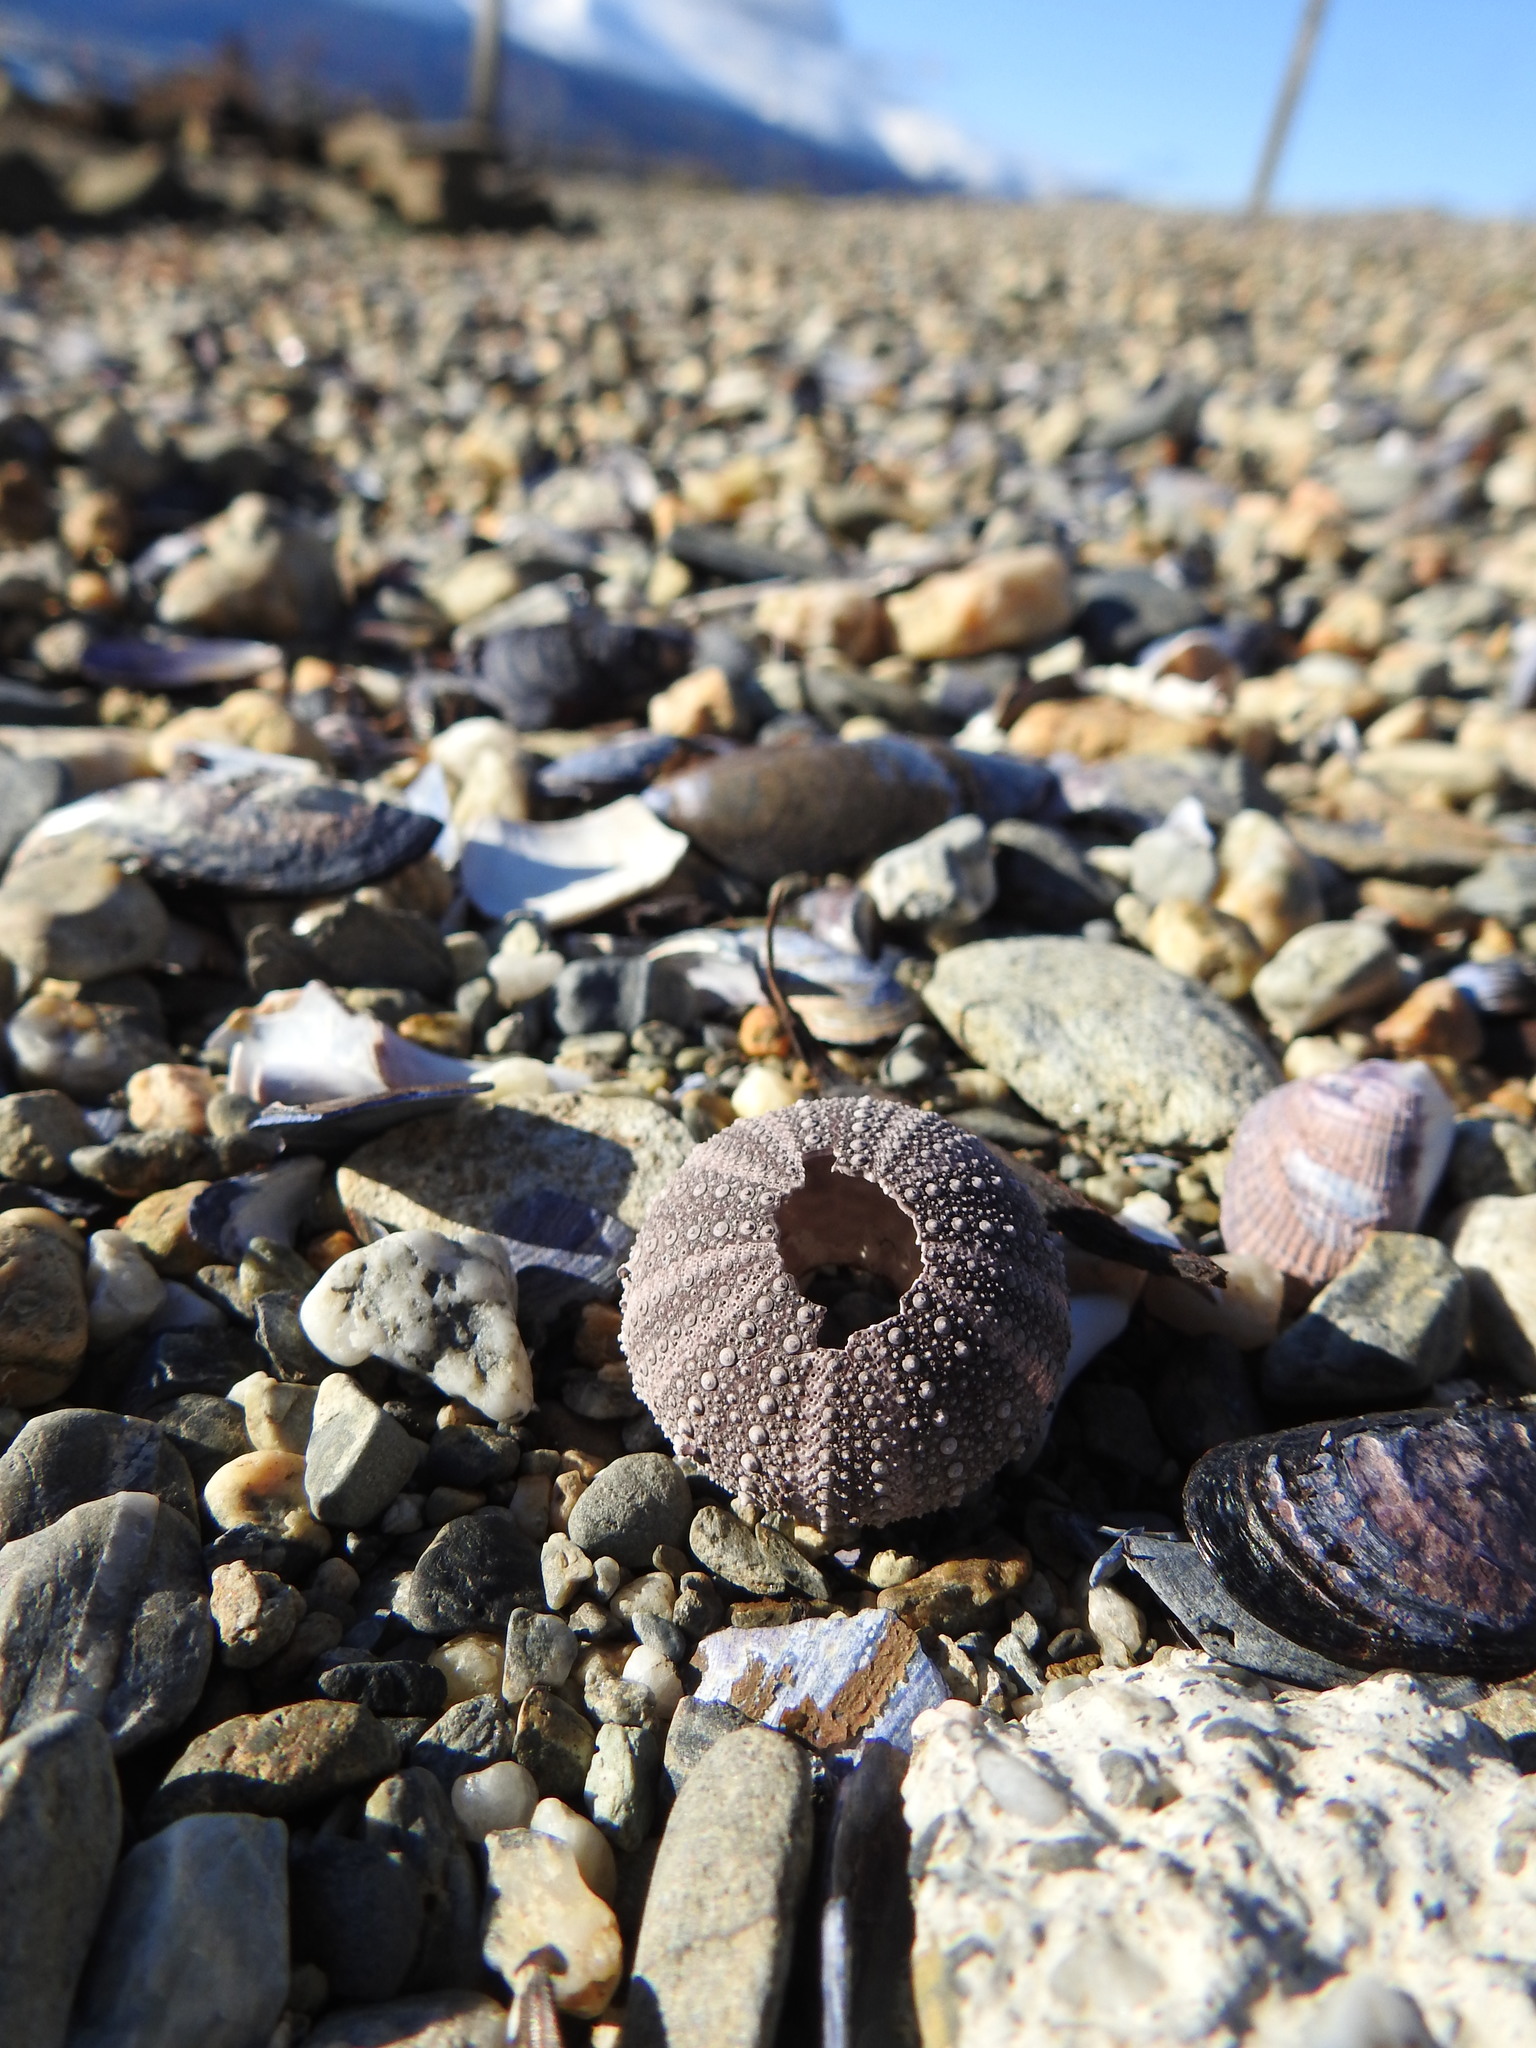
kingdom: Animalia
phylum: Echinodermata
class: Echinoidea
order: Camarodonta
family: Temnopleuridae
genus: Pseudechinus
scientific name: Pseudechinus magellanicus
